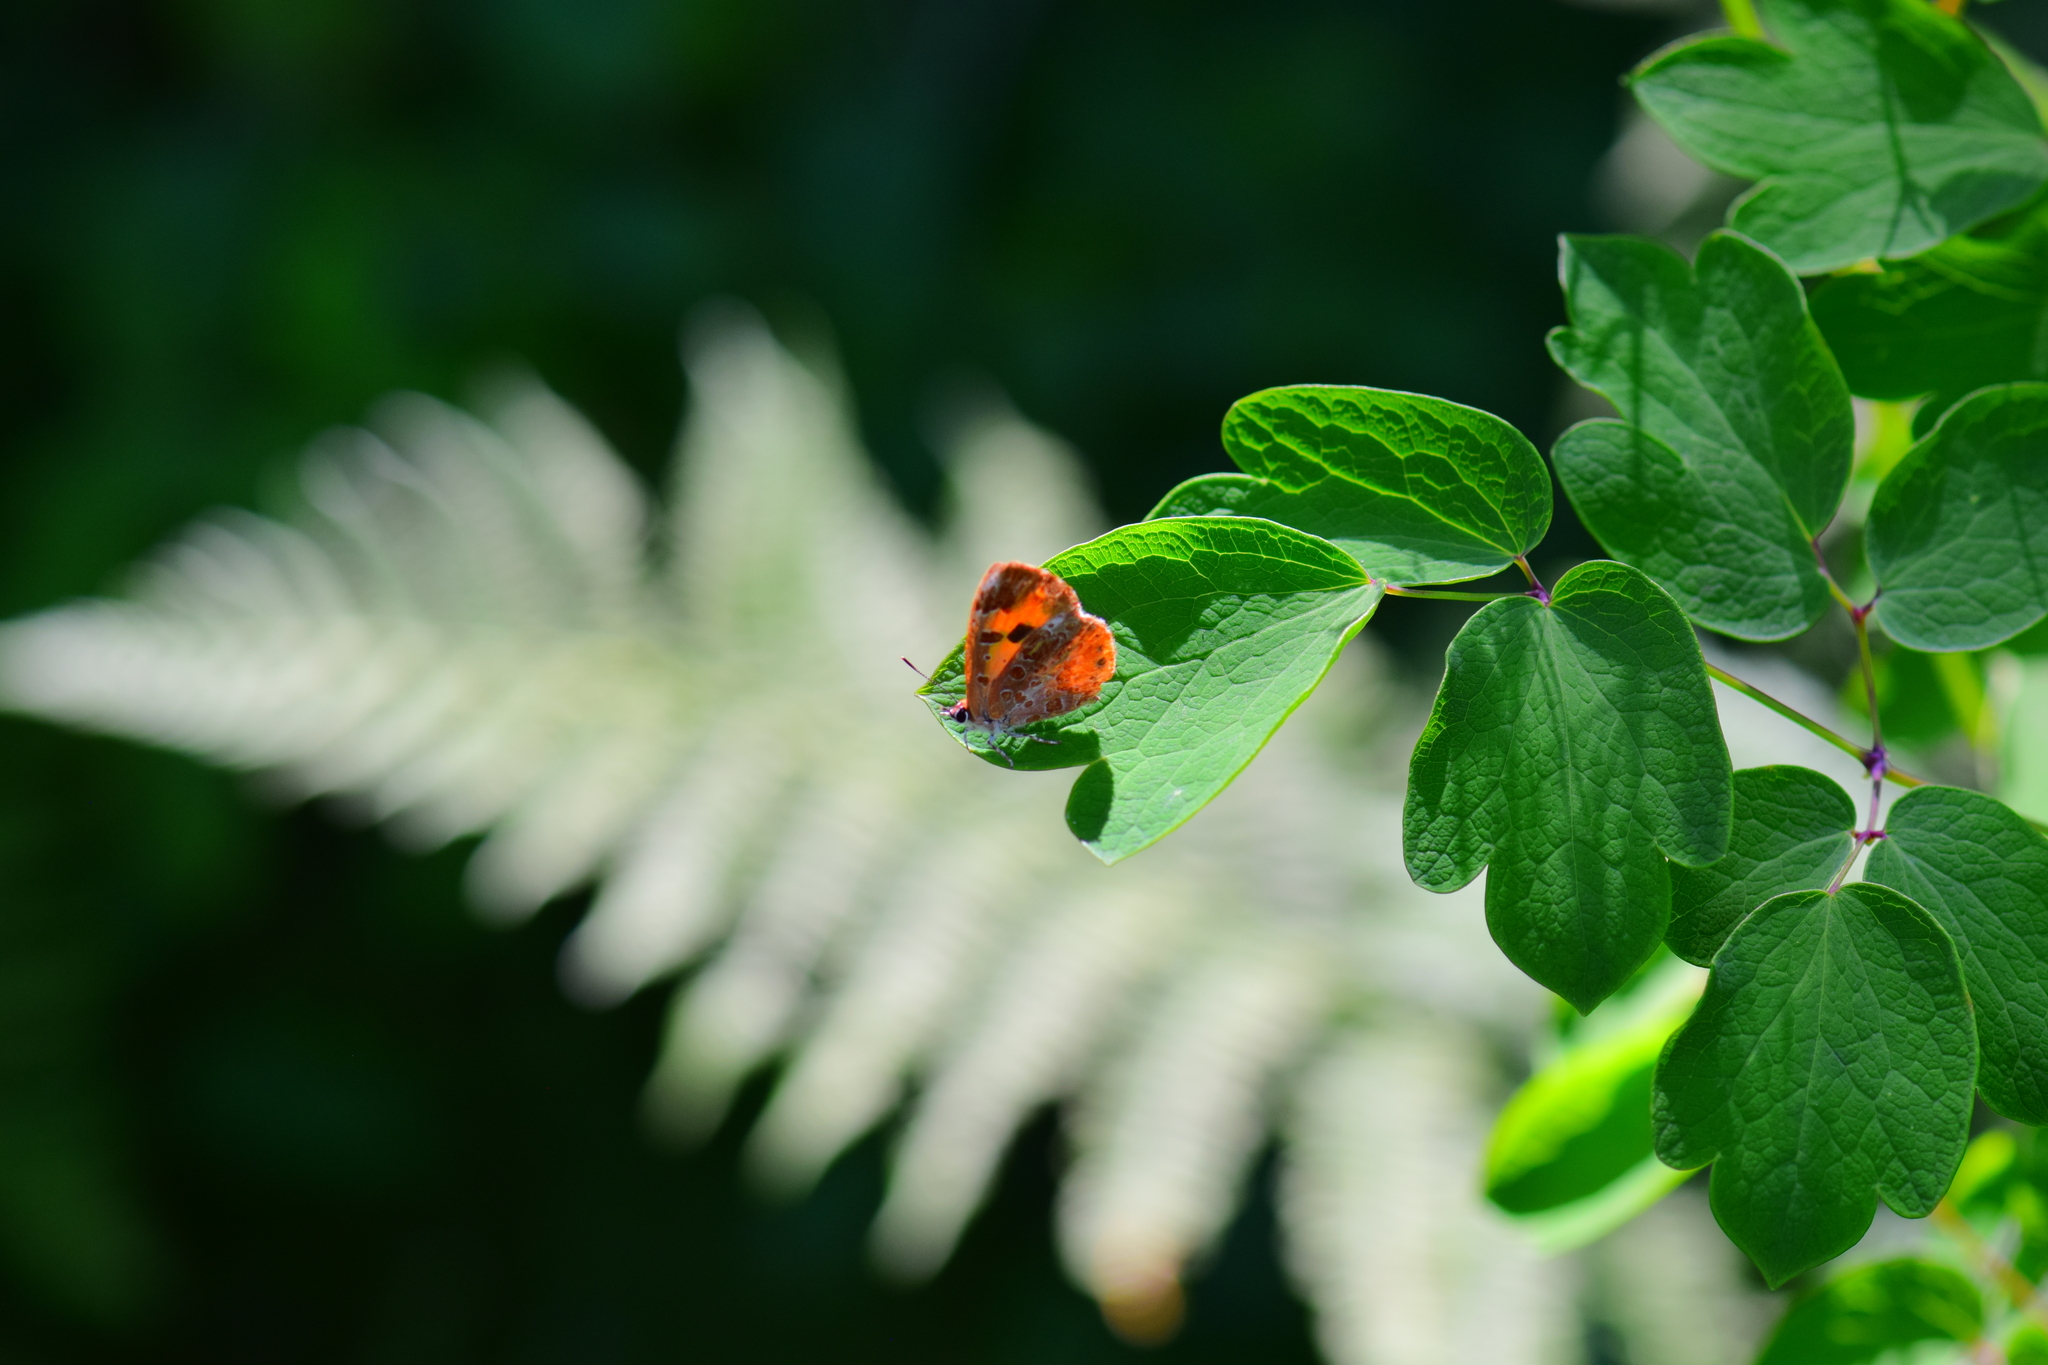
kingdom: Animalia
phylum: Arthropoda
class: Insecta
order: Lepidoptera
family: Lycaenidae
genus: Feniseca
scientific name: Feniseca tarquinius
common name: Harvester
